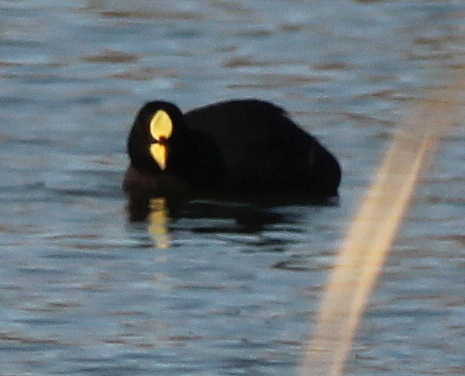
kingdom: Animalia
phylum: Chordata
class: Aves
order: Gruiformes
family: Rallidae
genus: Fulica
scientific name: Fulica armillata
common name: Red-gartered coot
